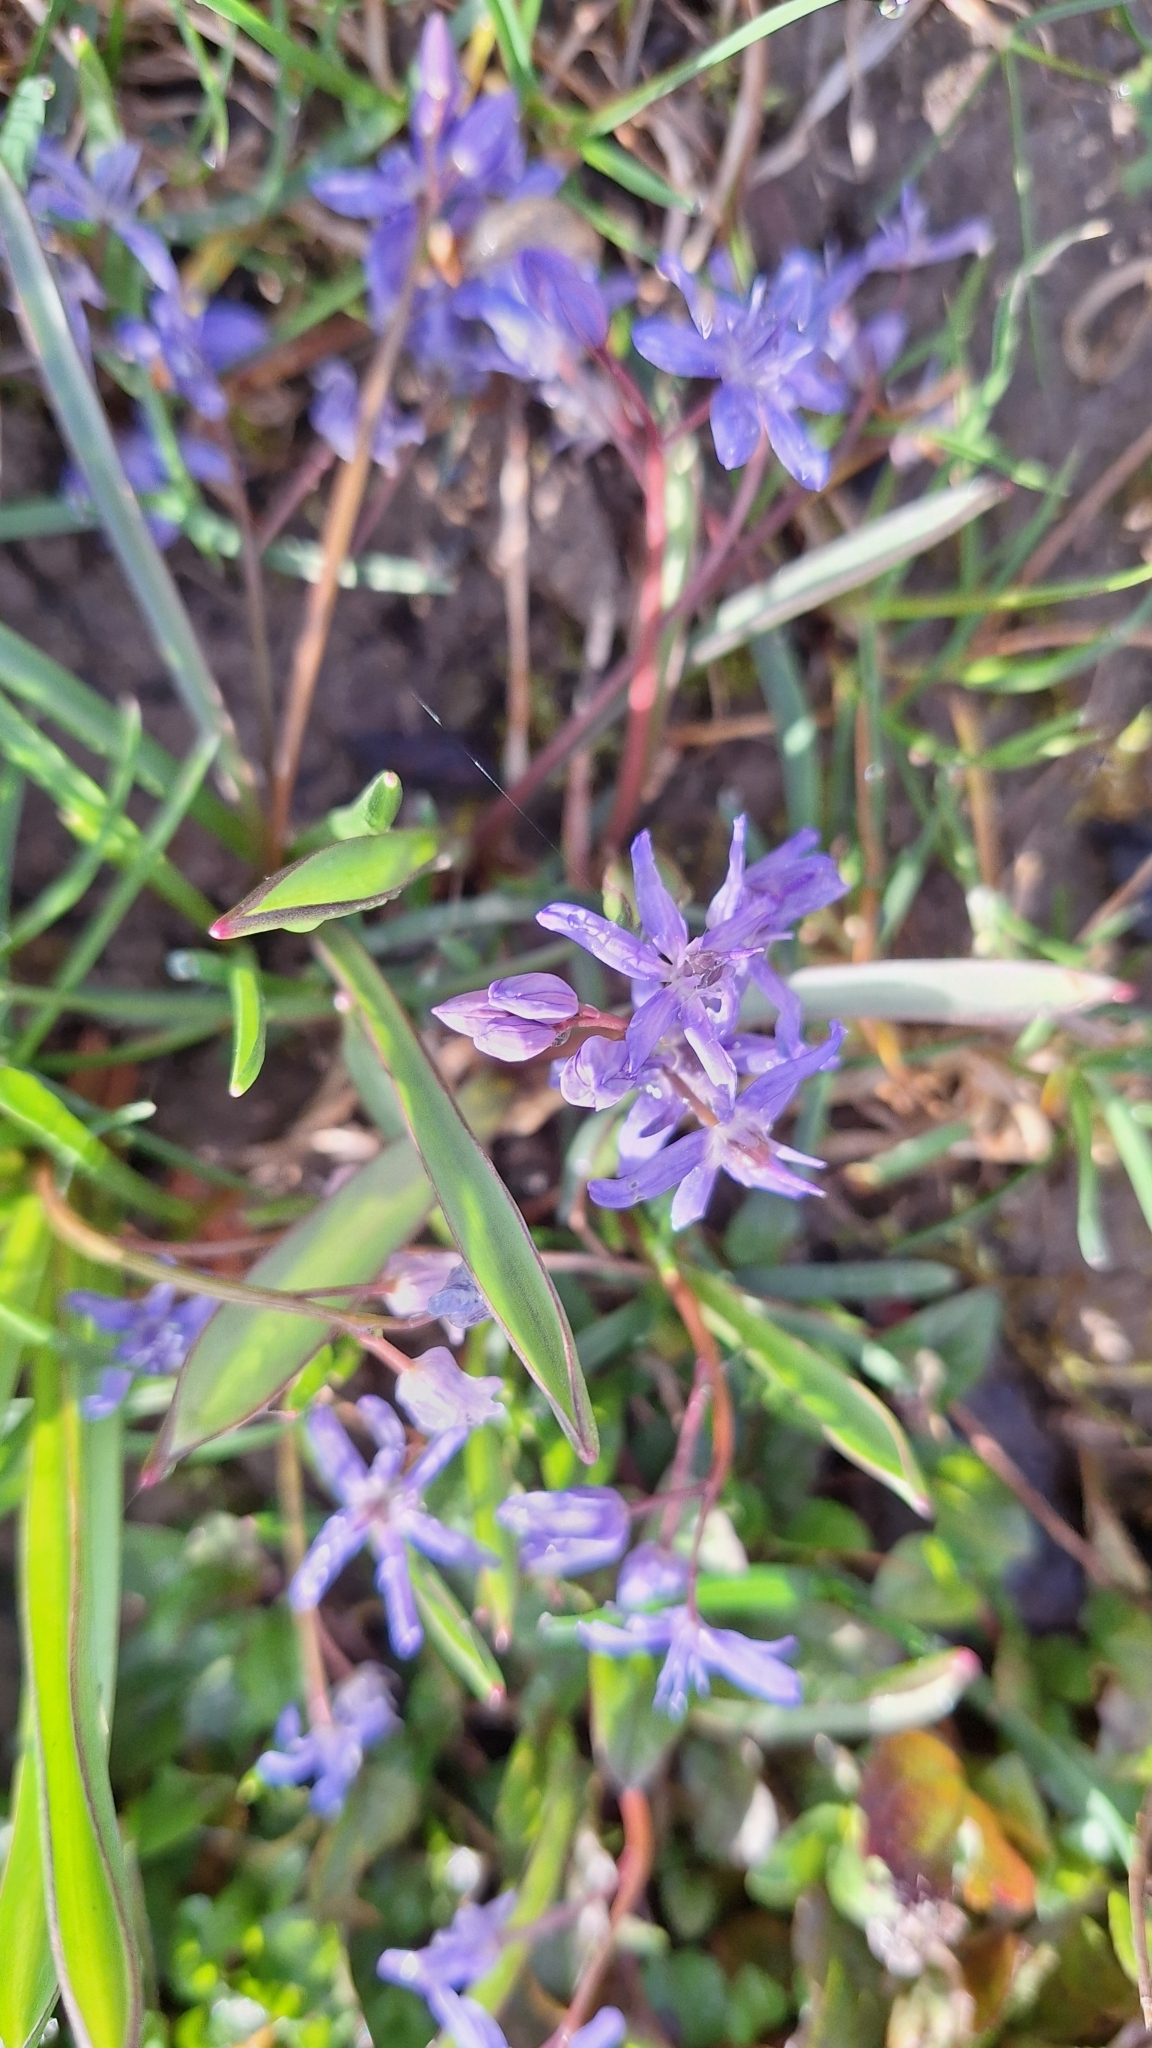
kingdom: Plantae
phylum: Tracheophyta
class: Liliopsida
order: Asparagales
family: Asparagaceae
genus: Scilla
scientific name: Scilla bifolia
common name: Alpine squill
